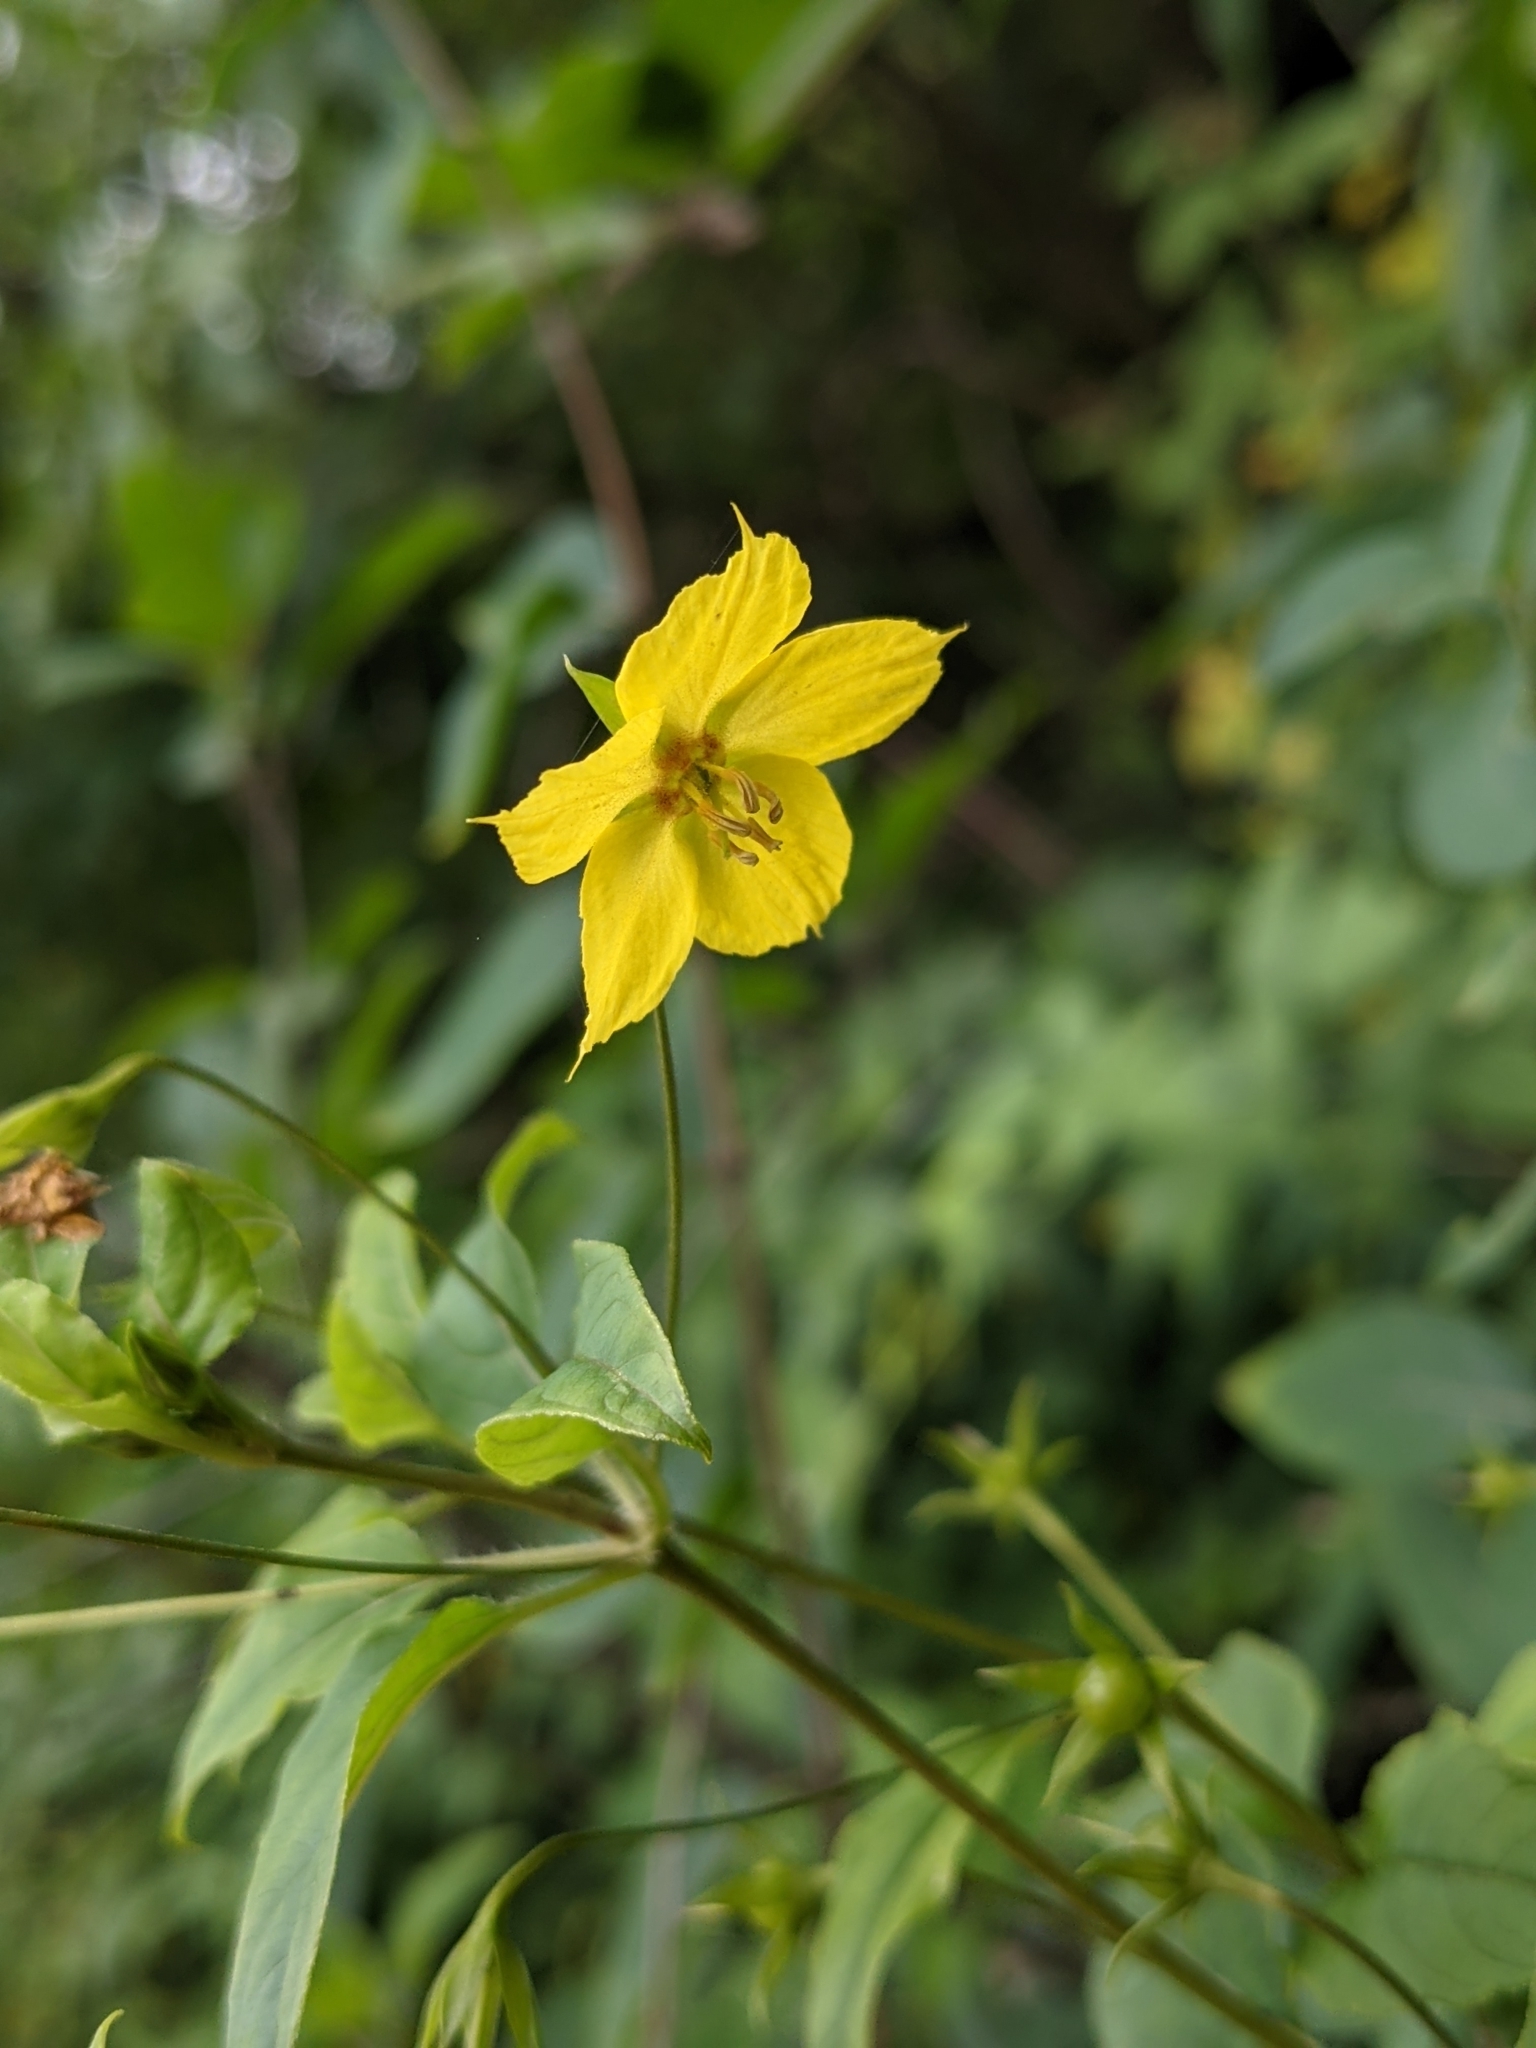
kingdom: Plantae
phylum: Tracheophyta
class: Magnoliopsida
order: Ericales
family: Primulaceae
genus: Lysimachia
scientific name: Lysimachia ciliata
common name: Fringed loosestrife
